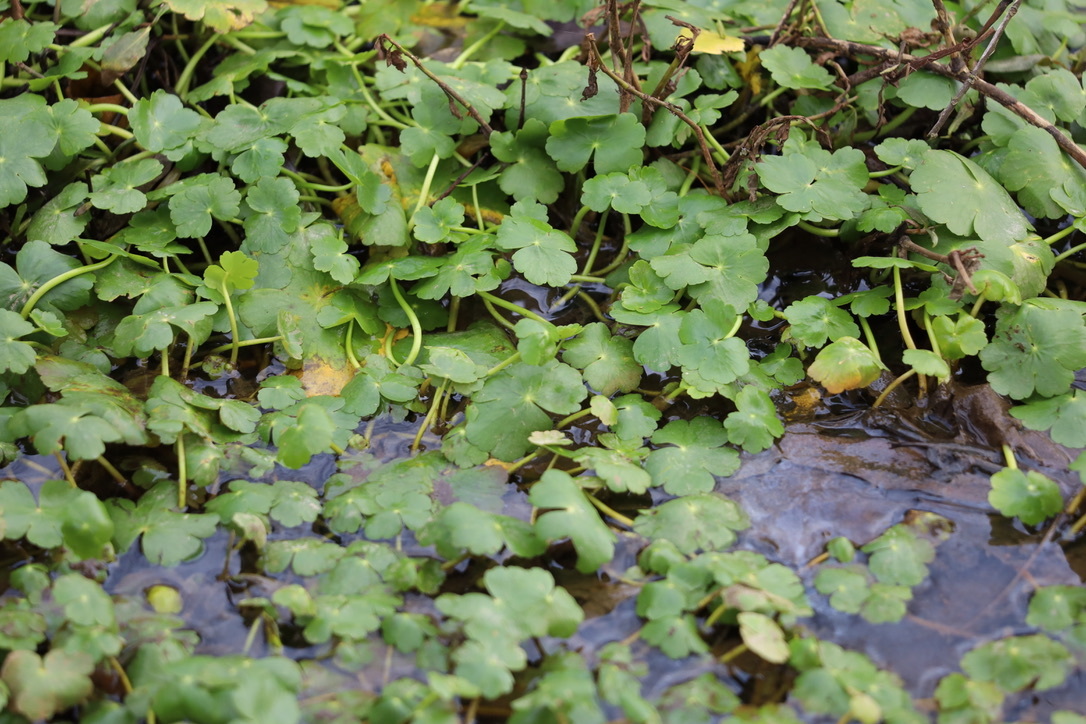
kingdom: Plantae
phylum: Tracheophyta
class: Magnoliopsida
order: Apiales
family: Araliaceae
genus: Hydrocotyle
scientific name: Hydrocotyle ranunculoides
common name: Floating pennywort
